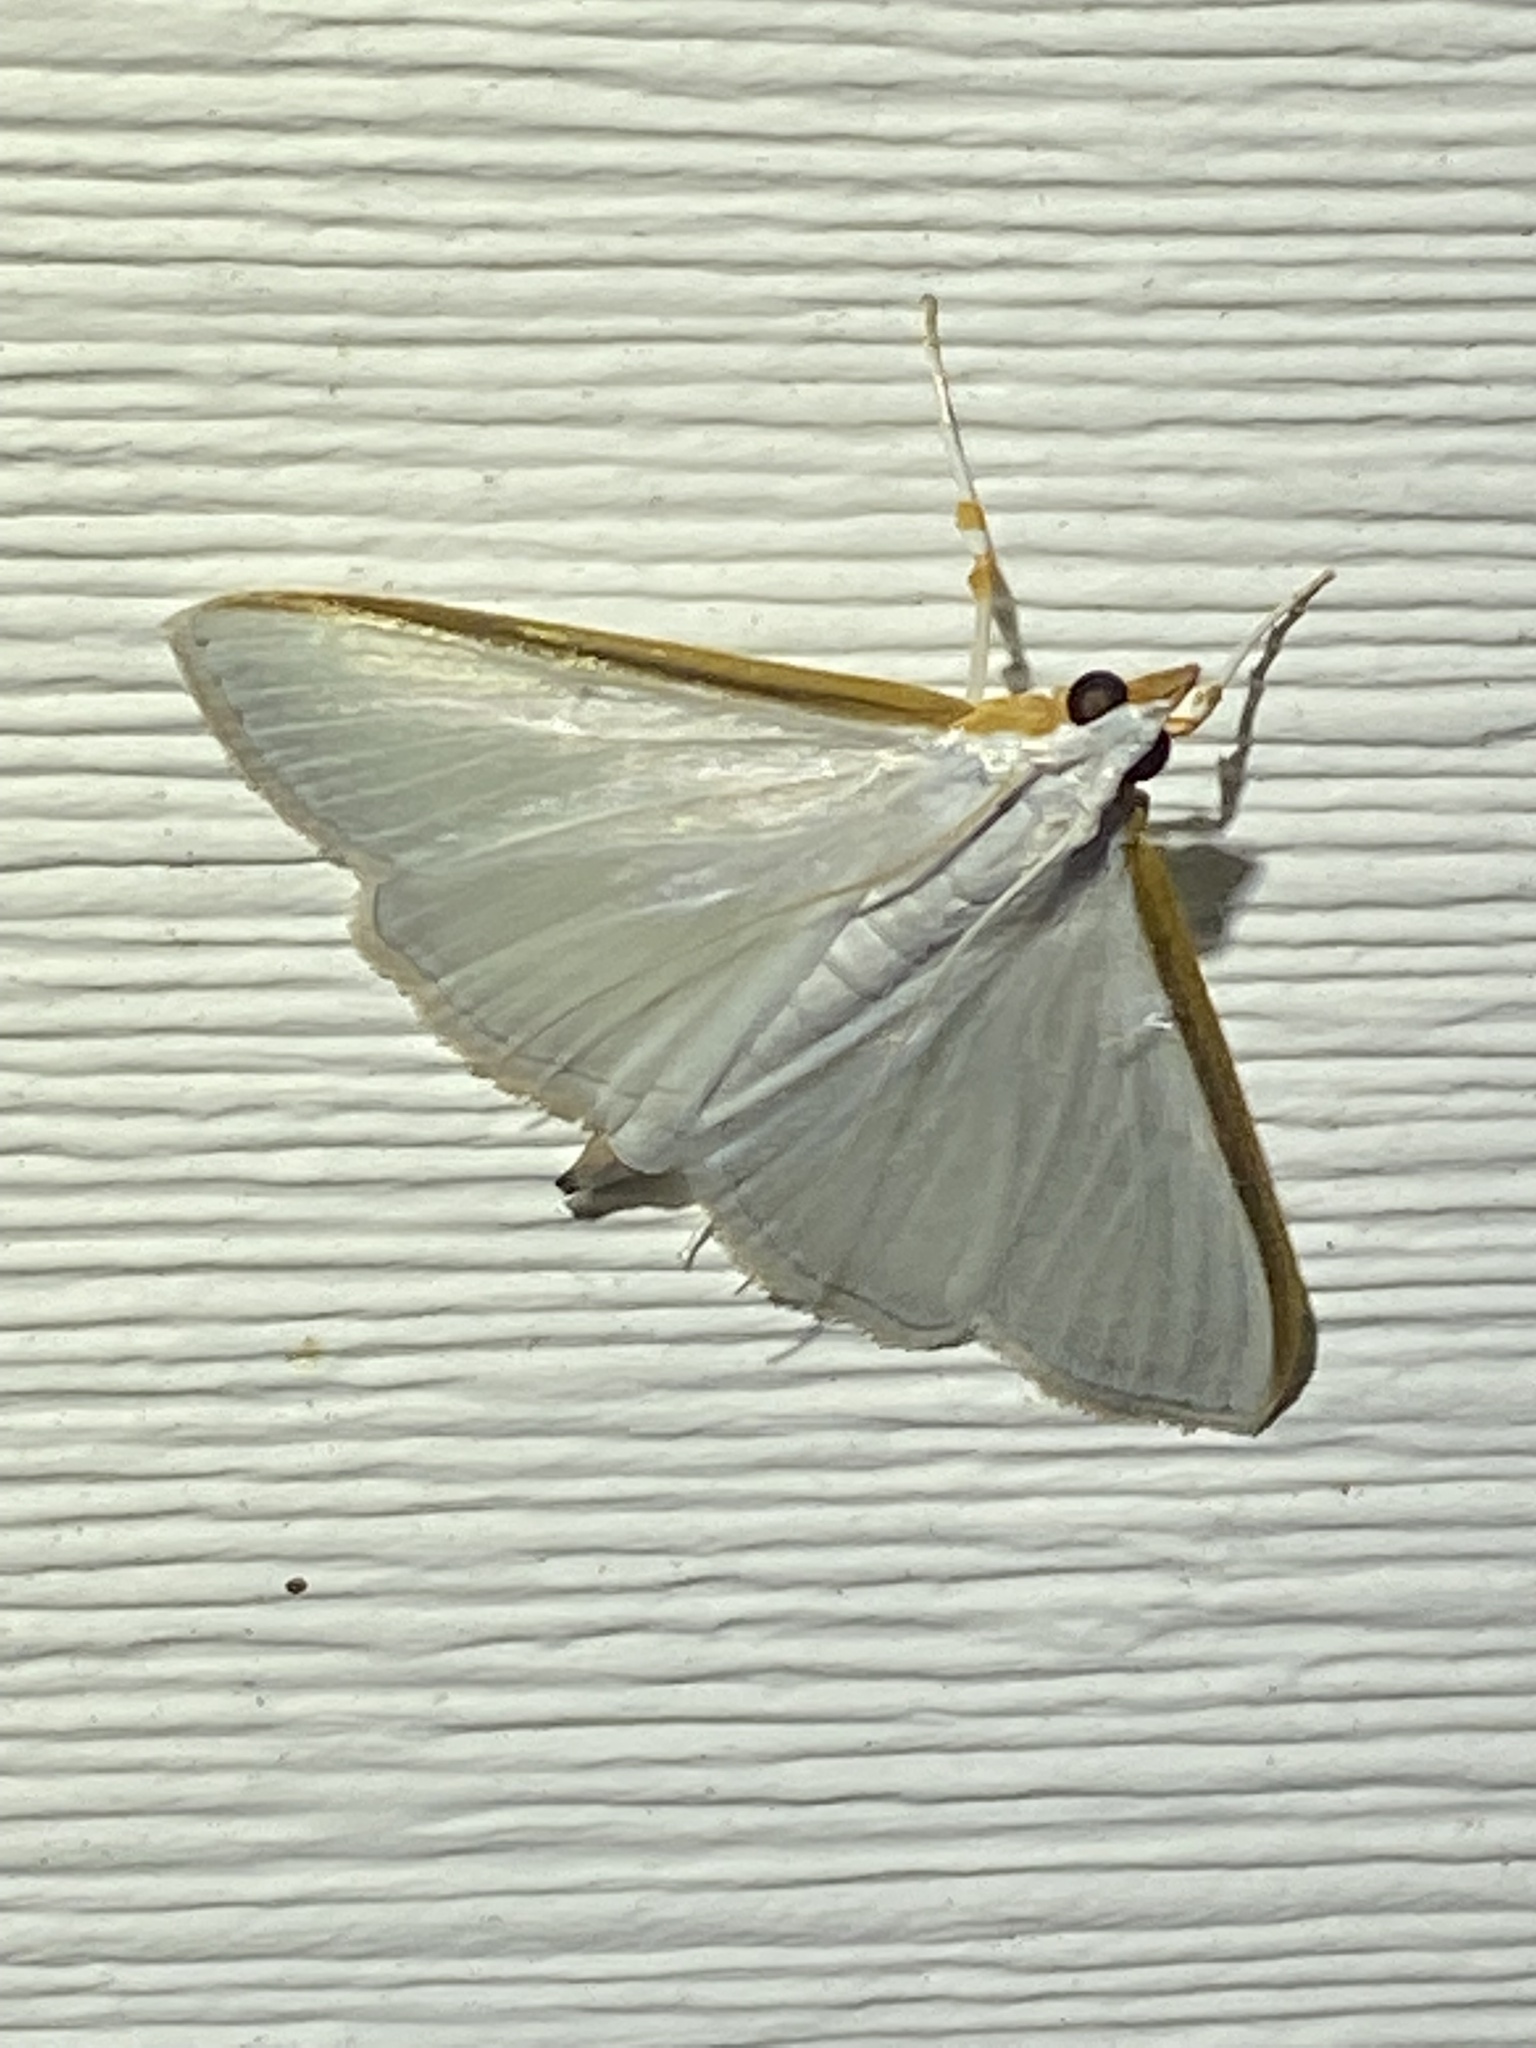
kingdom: Animalia
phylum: Arthropoda
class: Insecta
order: Lepidoptera
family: Crambidae
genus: Diaphania
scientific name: Diaphania costata
